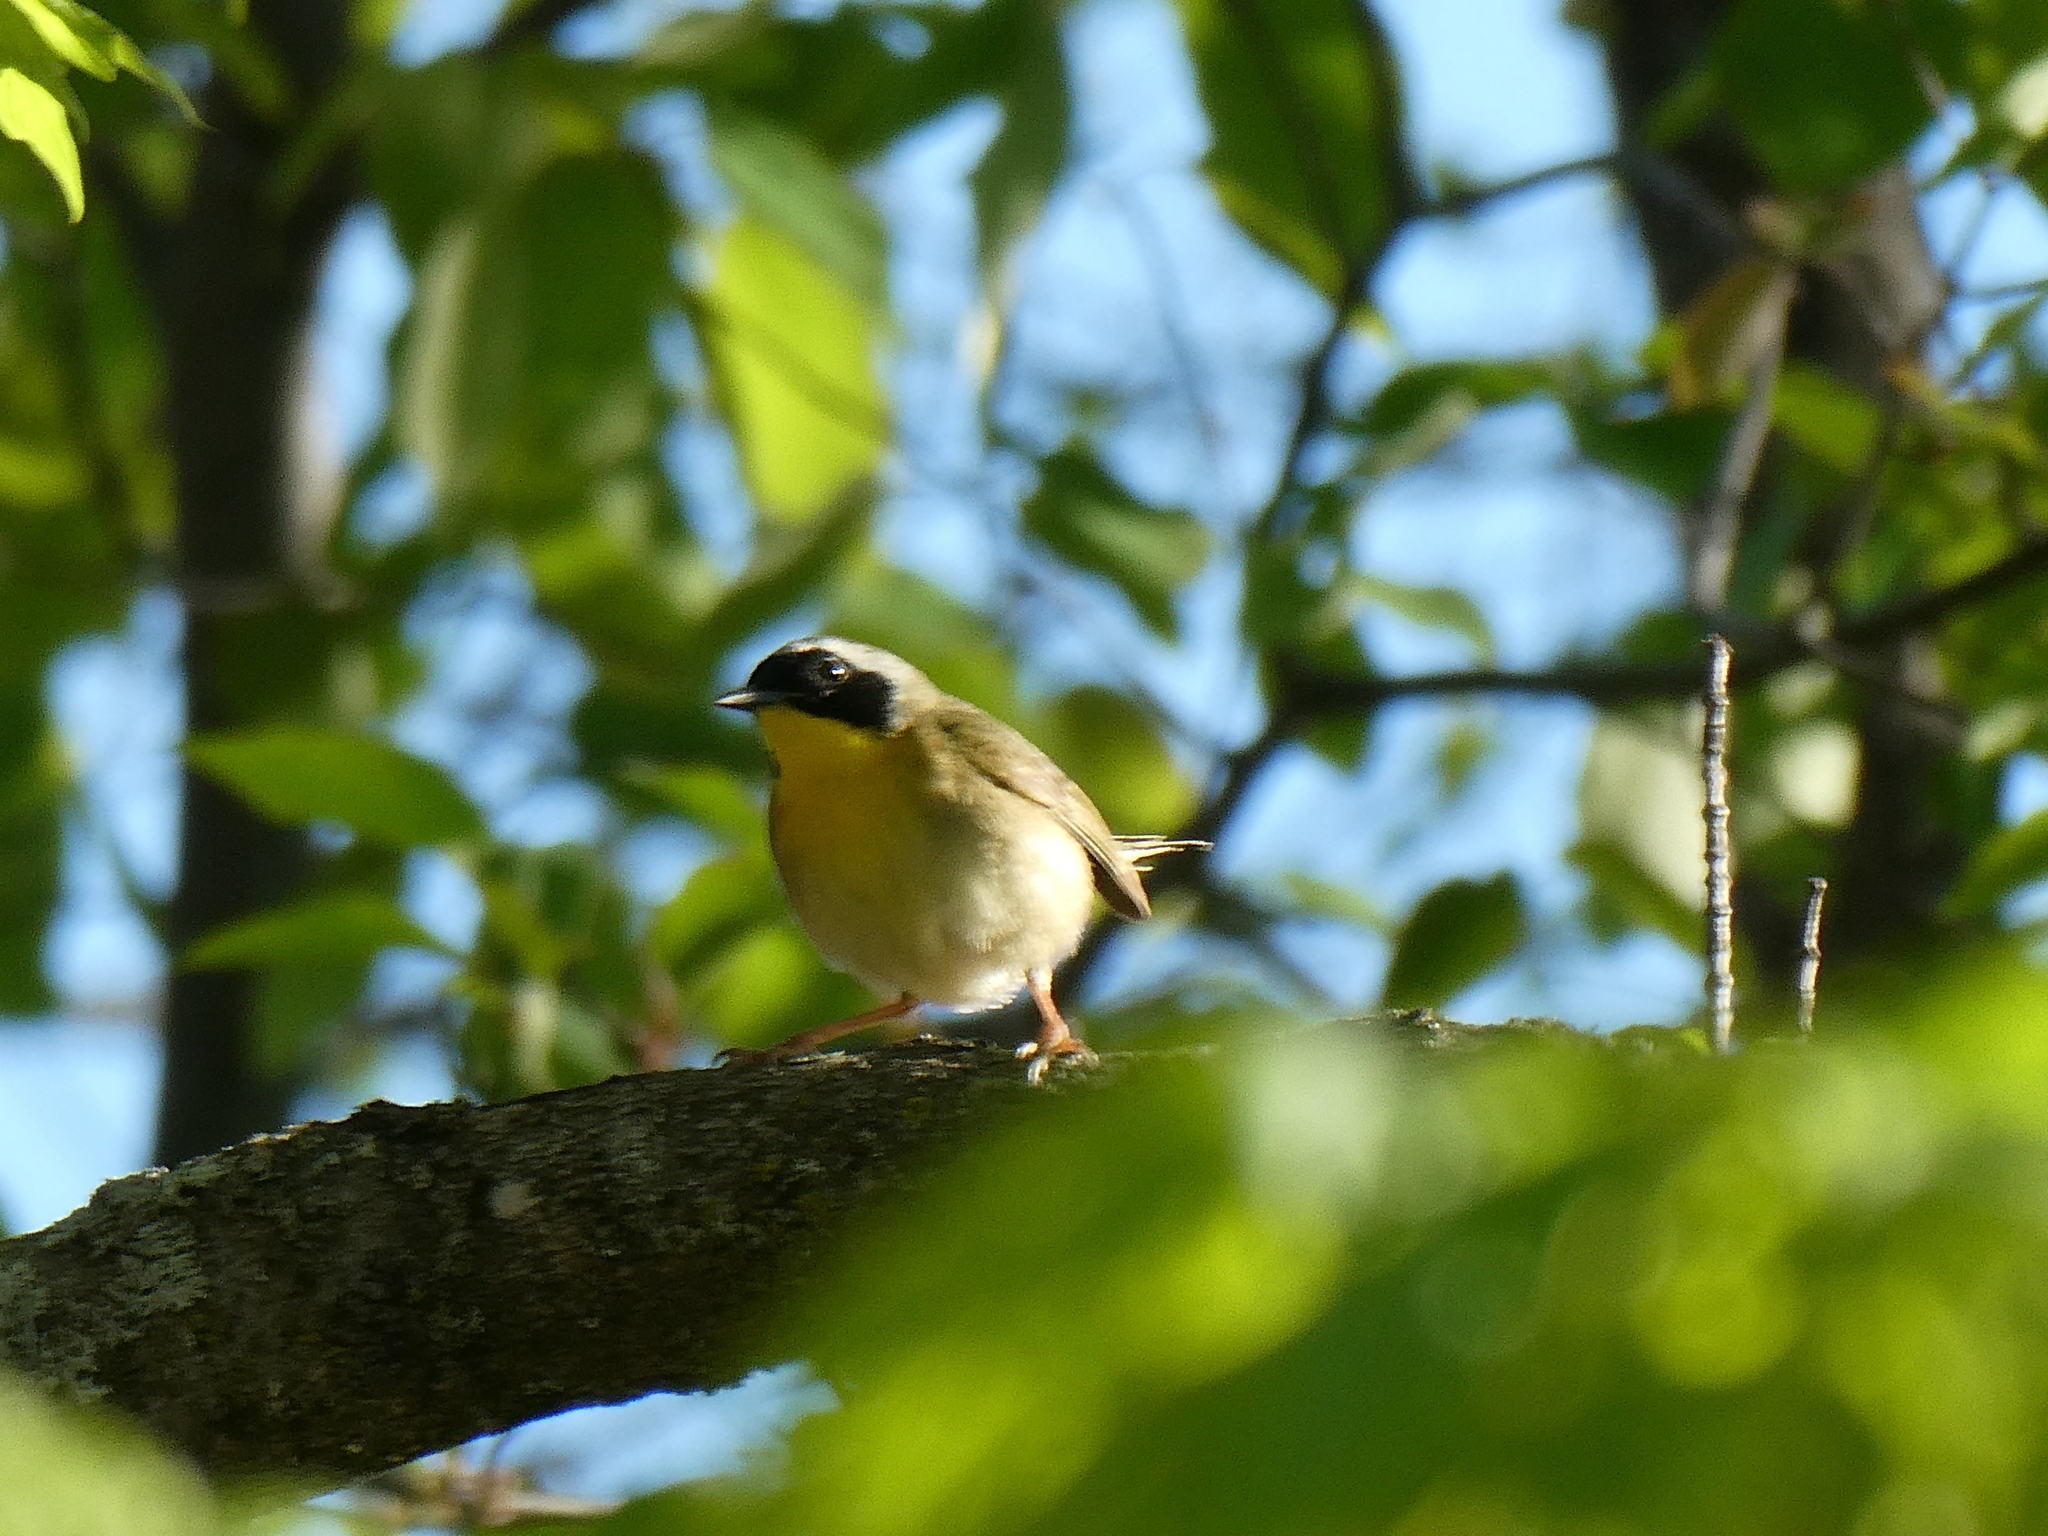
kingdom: Animalia
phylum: Chordata
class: Aves
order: Passeriformes
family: Parulidae
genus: Geothlypis
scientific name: Geothlypis trichas
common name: Common yellowthroat
